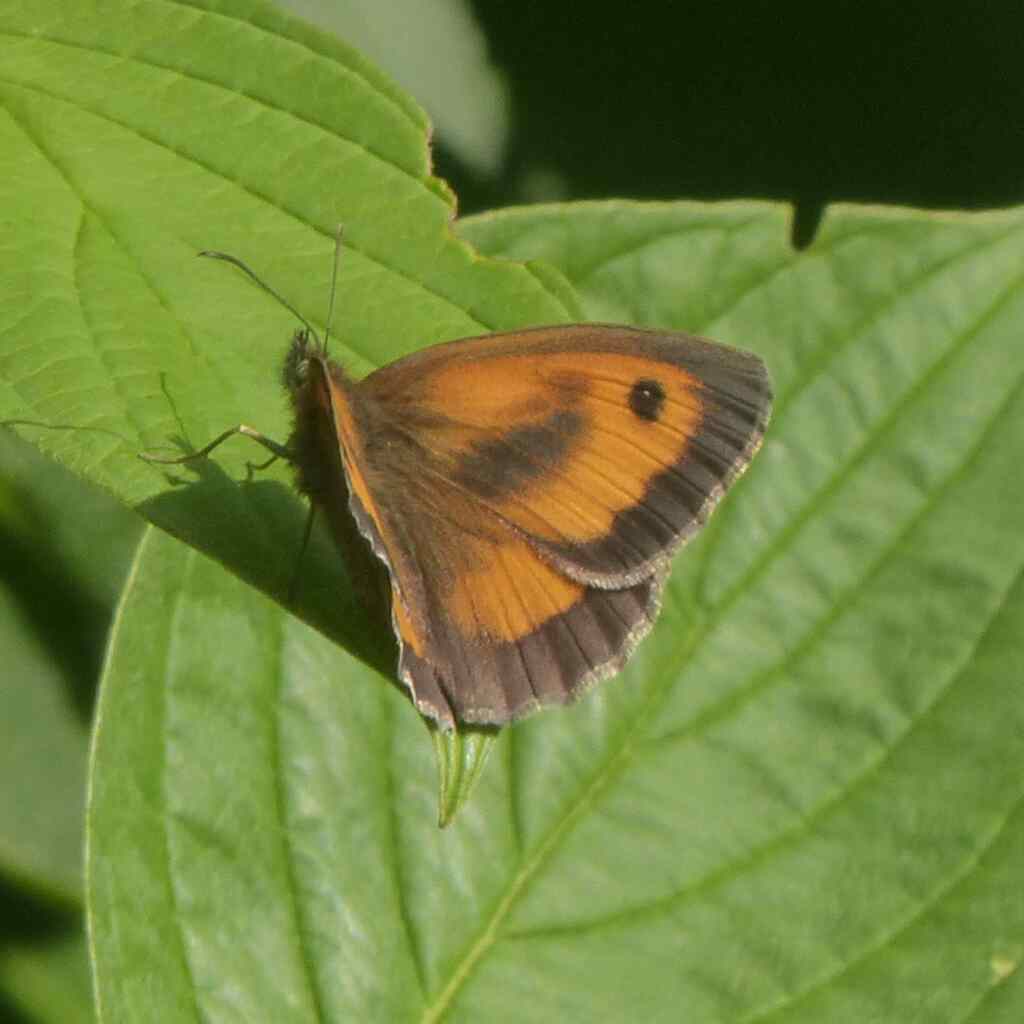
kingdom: Animalia
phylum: Arthropoda
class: Insecta
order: Lepidoptera
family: Nymphalidae
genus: Pyronia
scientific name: Pyronia tithonus
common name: Gatekeeper
